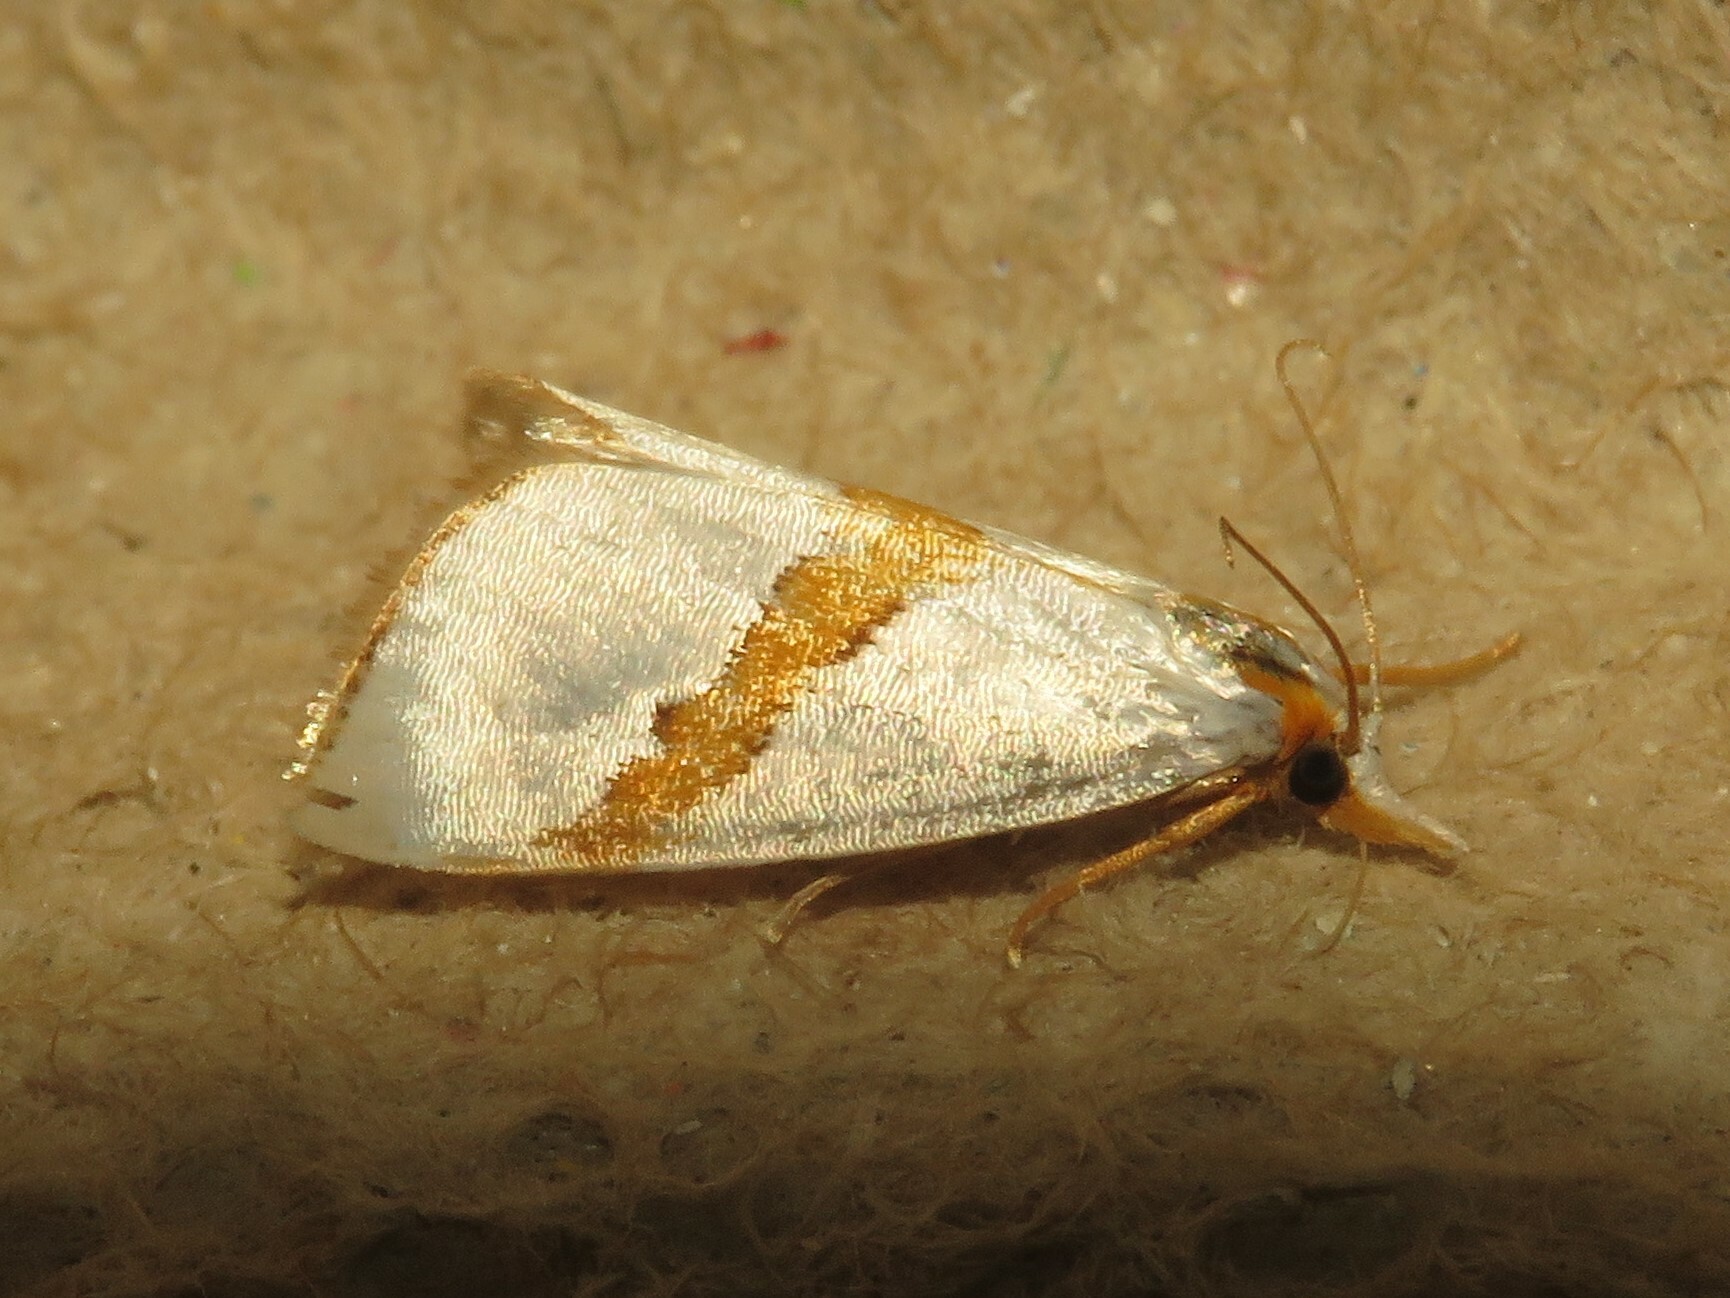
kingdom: Animalia
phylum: Arthropoda
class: Insecta
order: Lepidoptera
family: Crambidae
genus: Vaxi
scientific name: Vaxi critica
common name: Straight-lined vaxi moth
